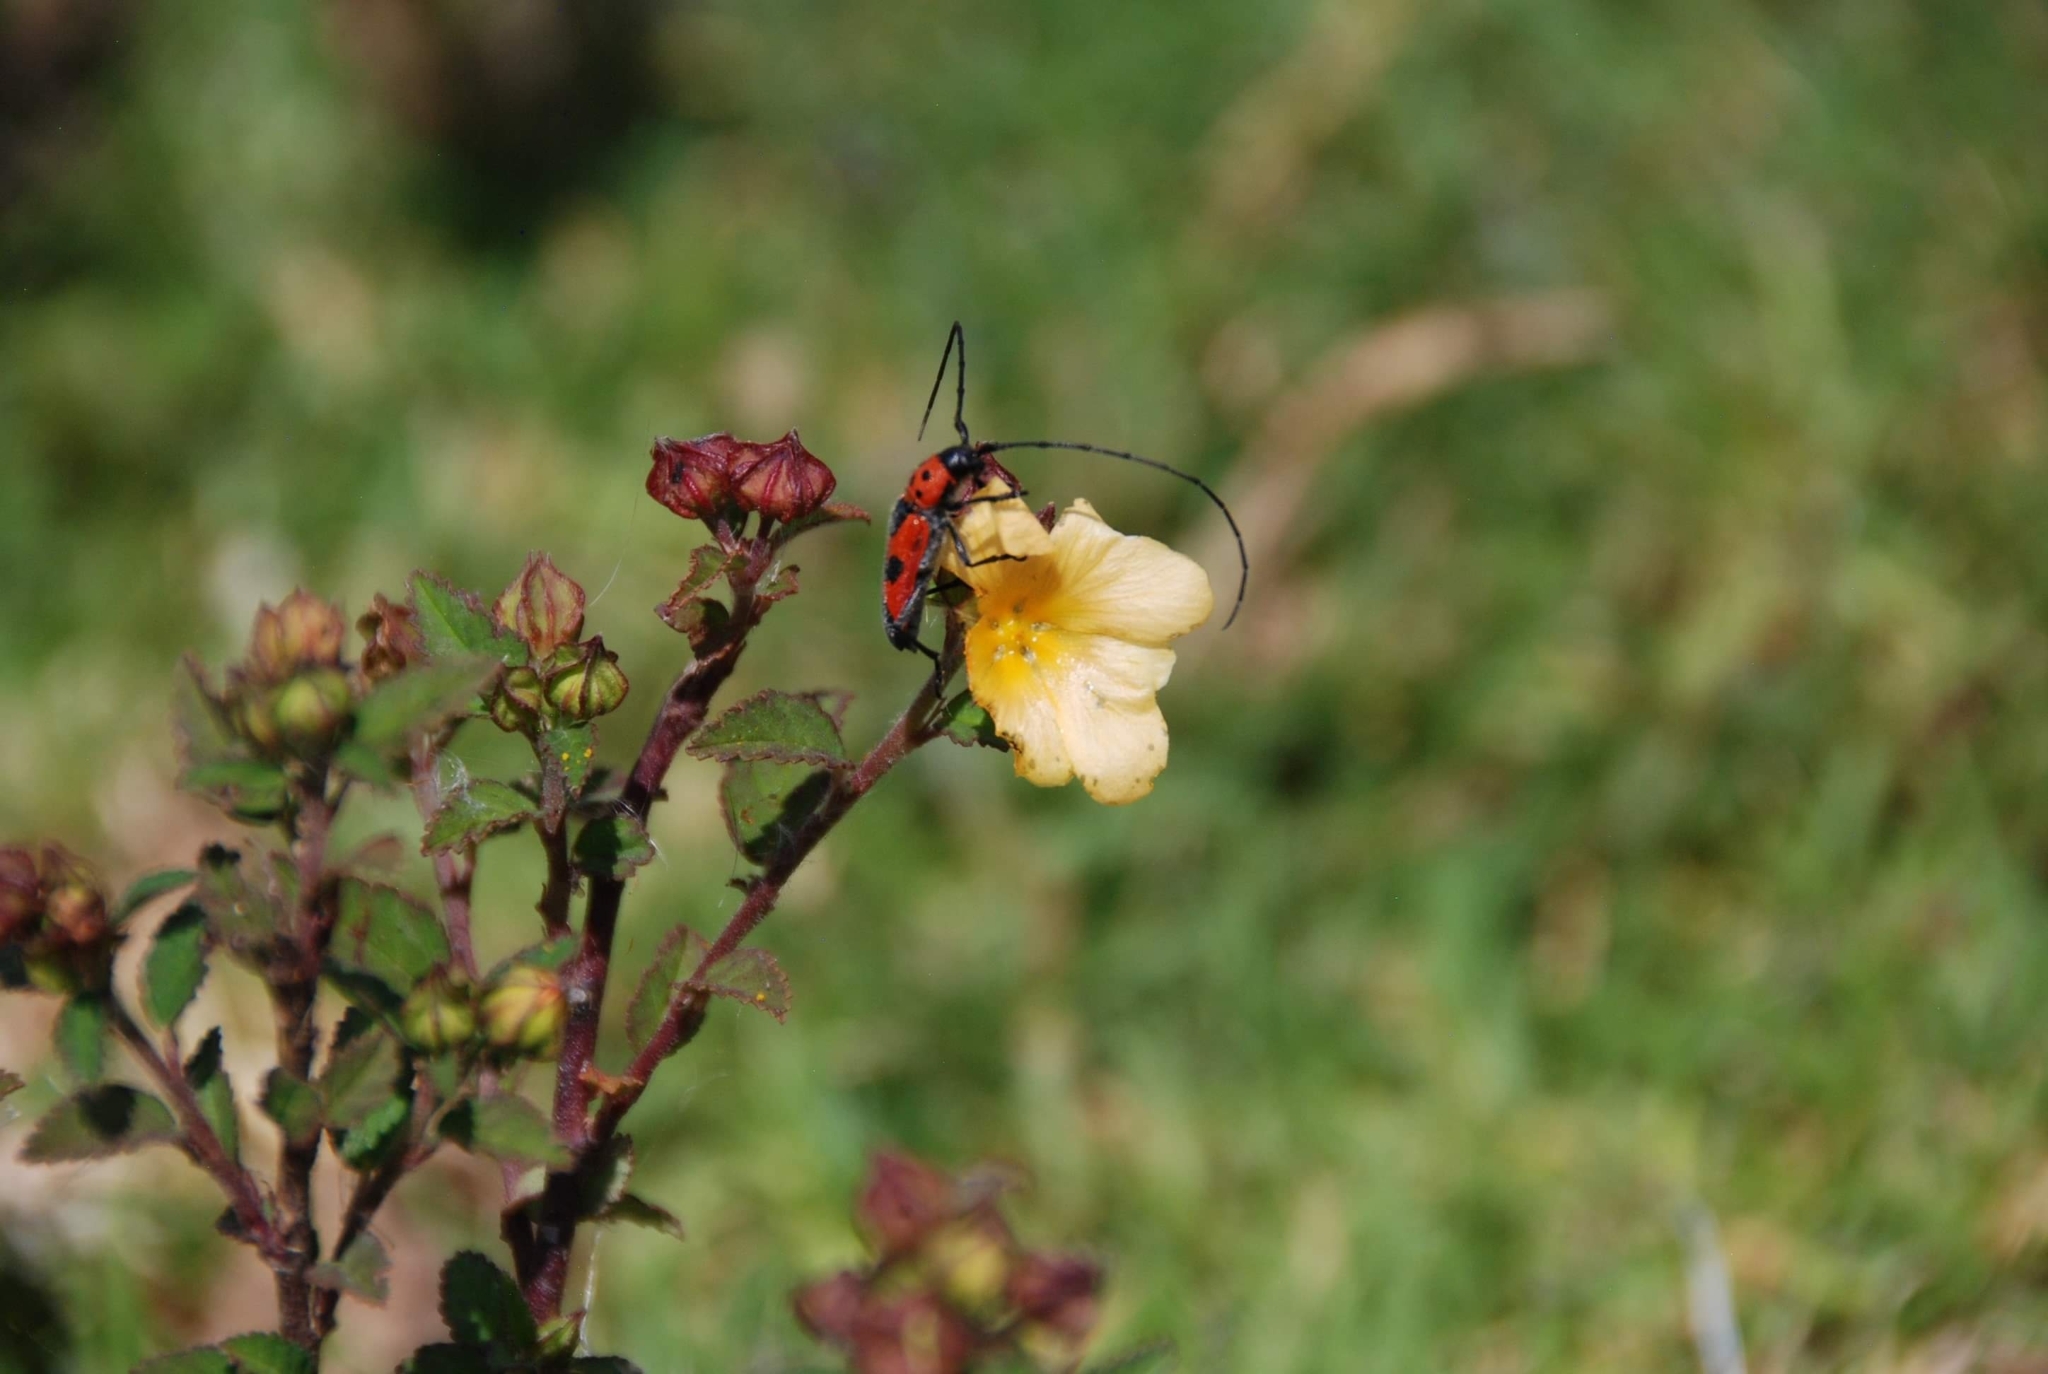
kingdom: Animalia
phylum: Arthropoda
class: Insecta
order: Coleoptera
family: Cerambycidae
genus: Tylosis
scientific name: Tylosis puncticollis
